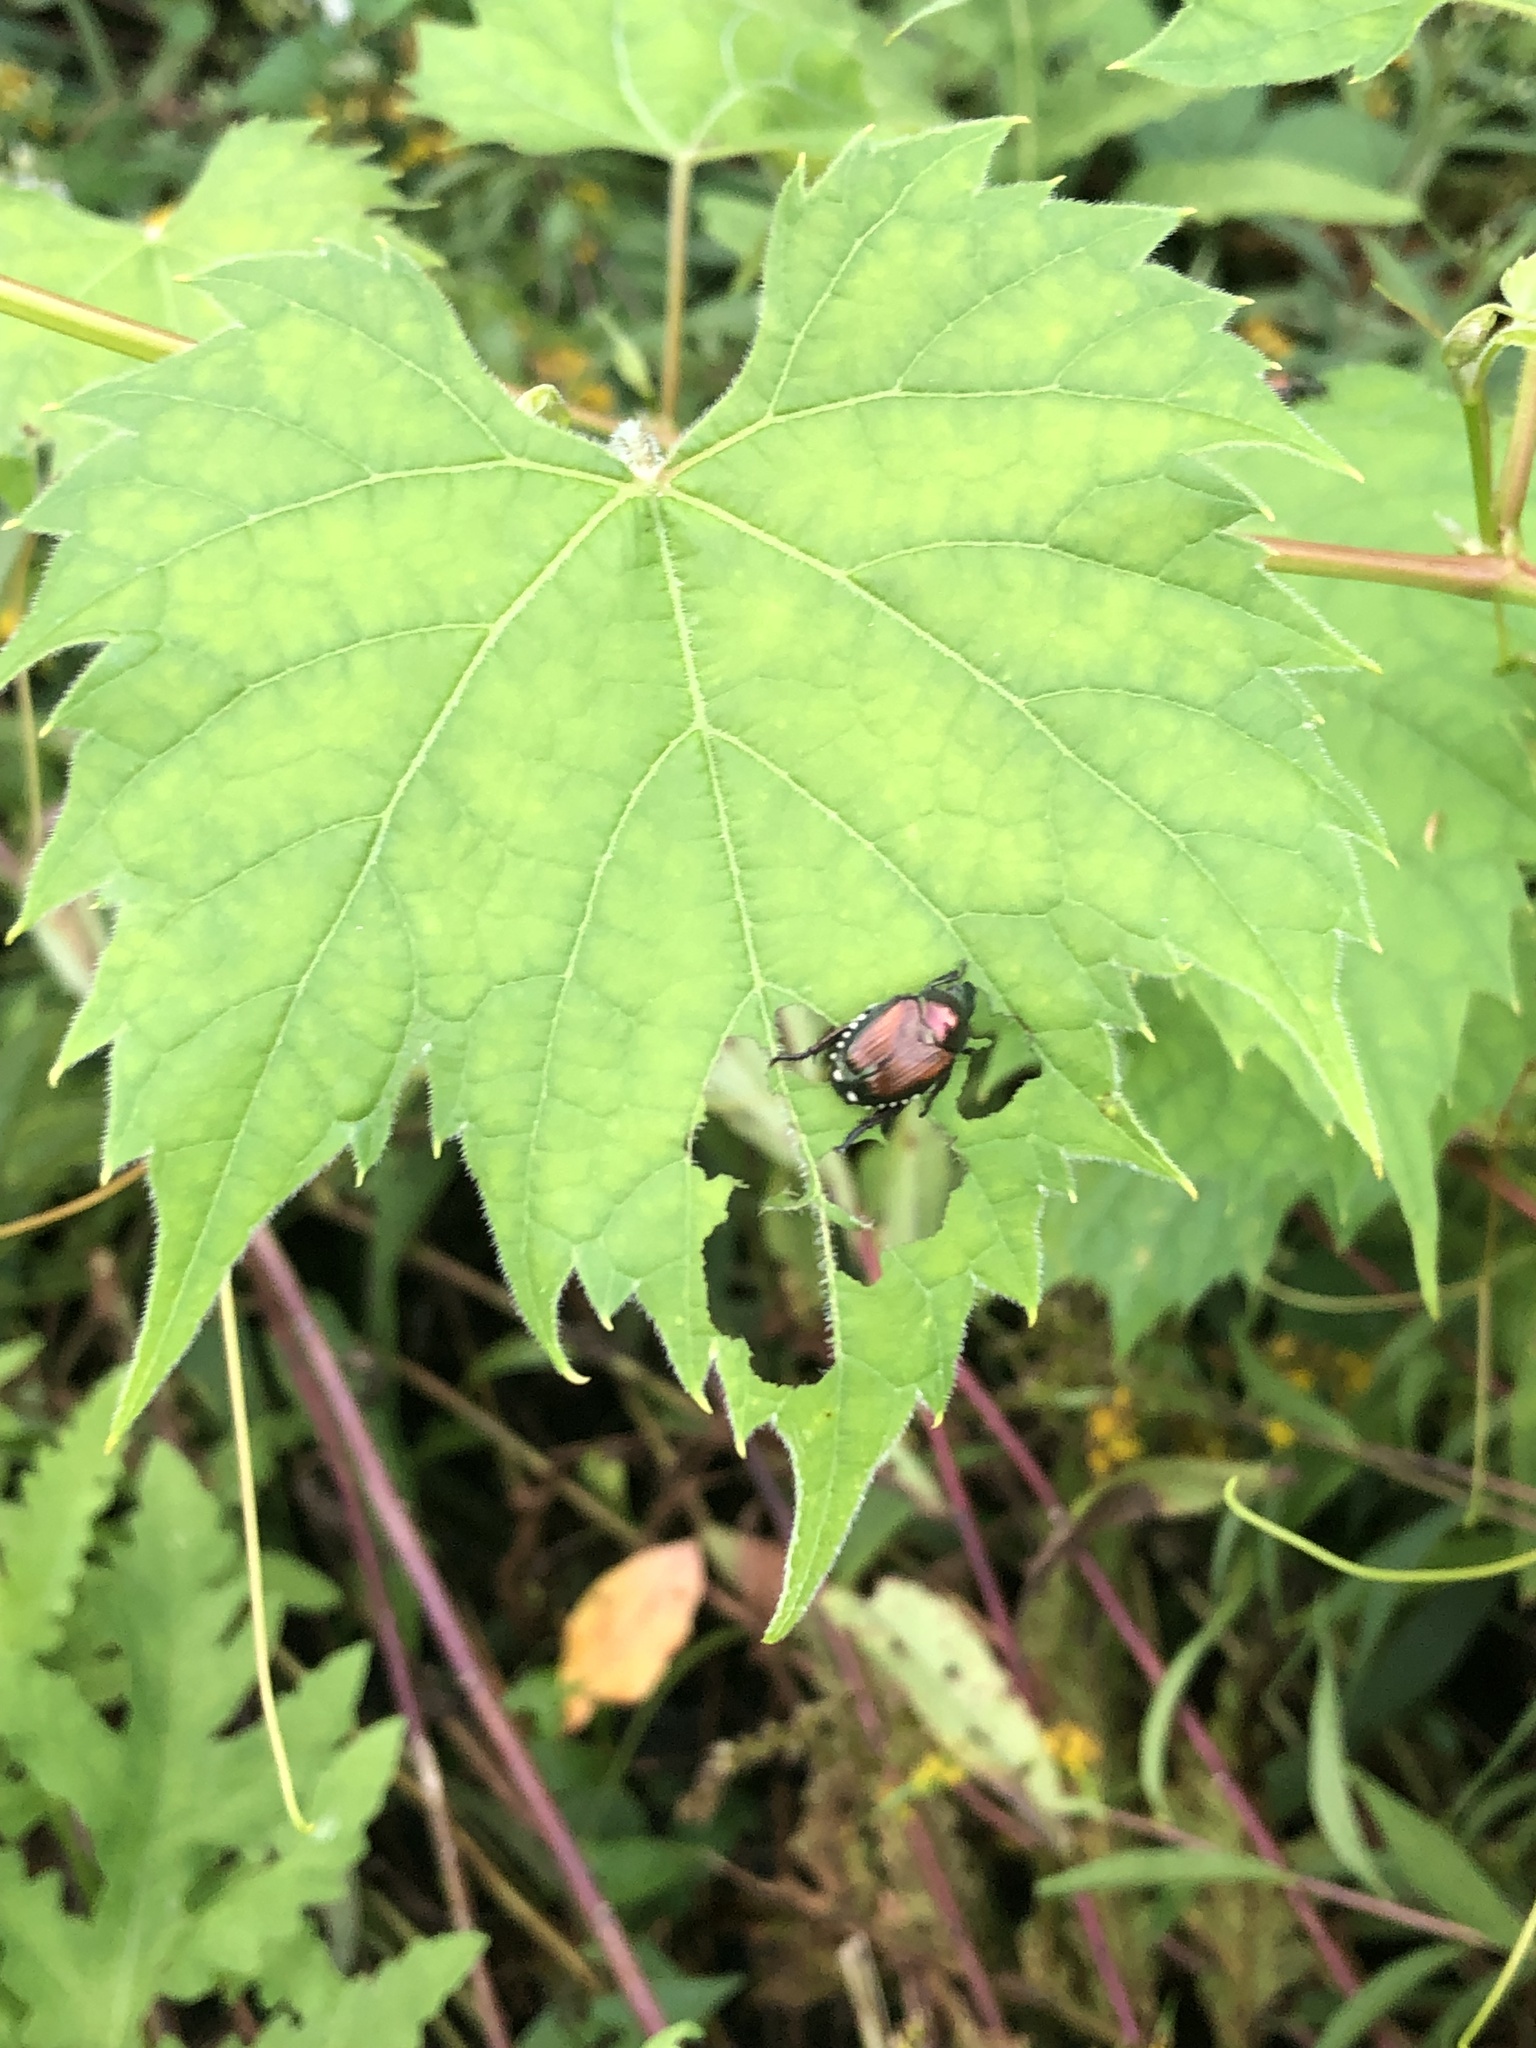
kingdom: Animalia
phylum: Arthropoda
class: Insecta
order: Coleoptera
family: Scarabaeidae
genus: Popillia
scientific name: Popillia japonica
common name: Japanese beetle
